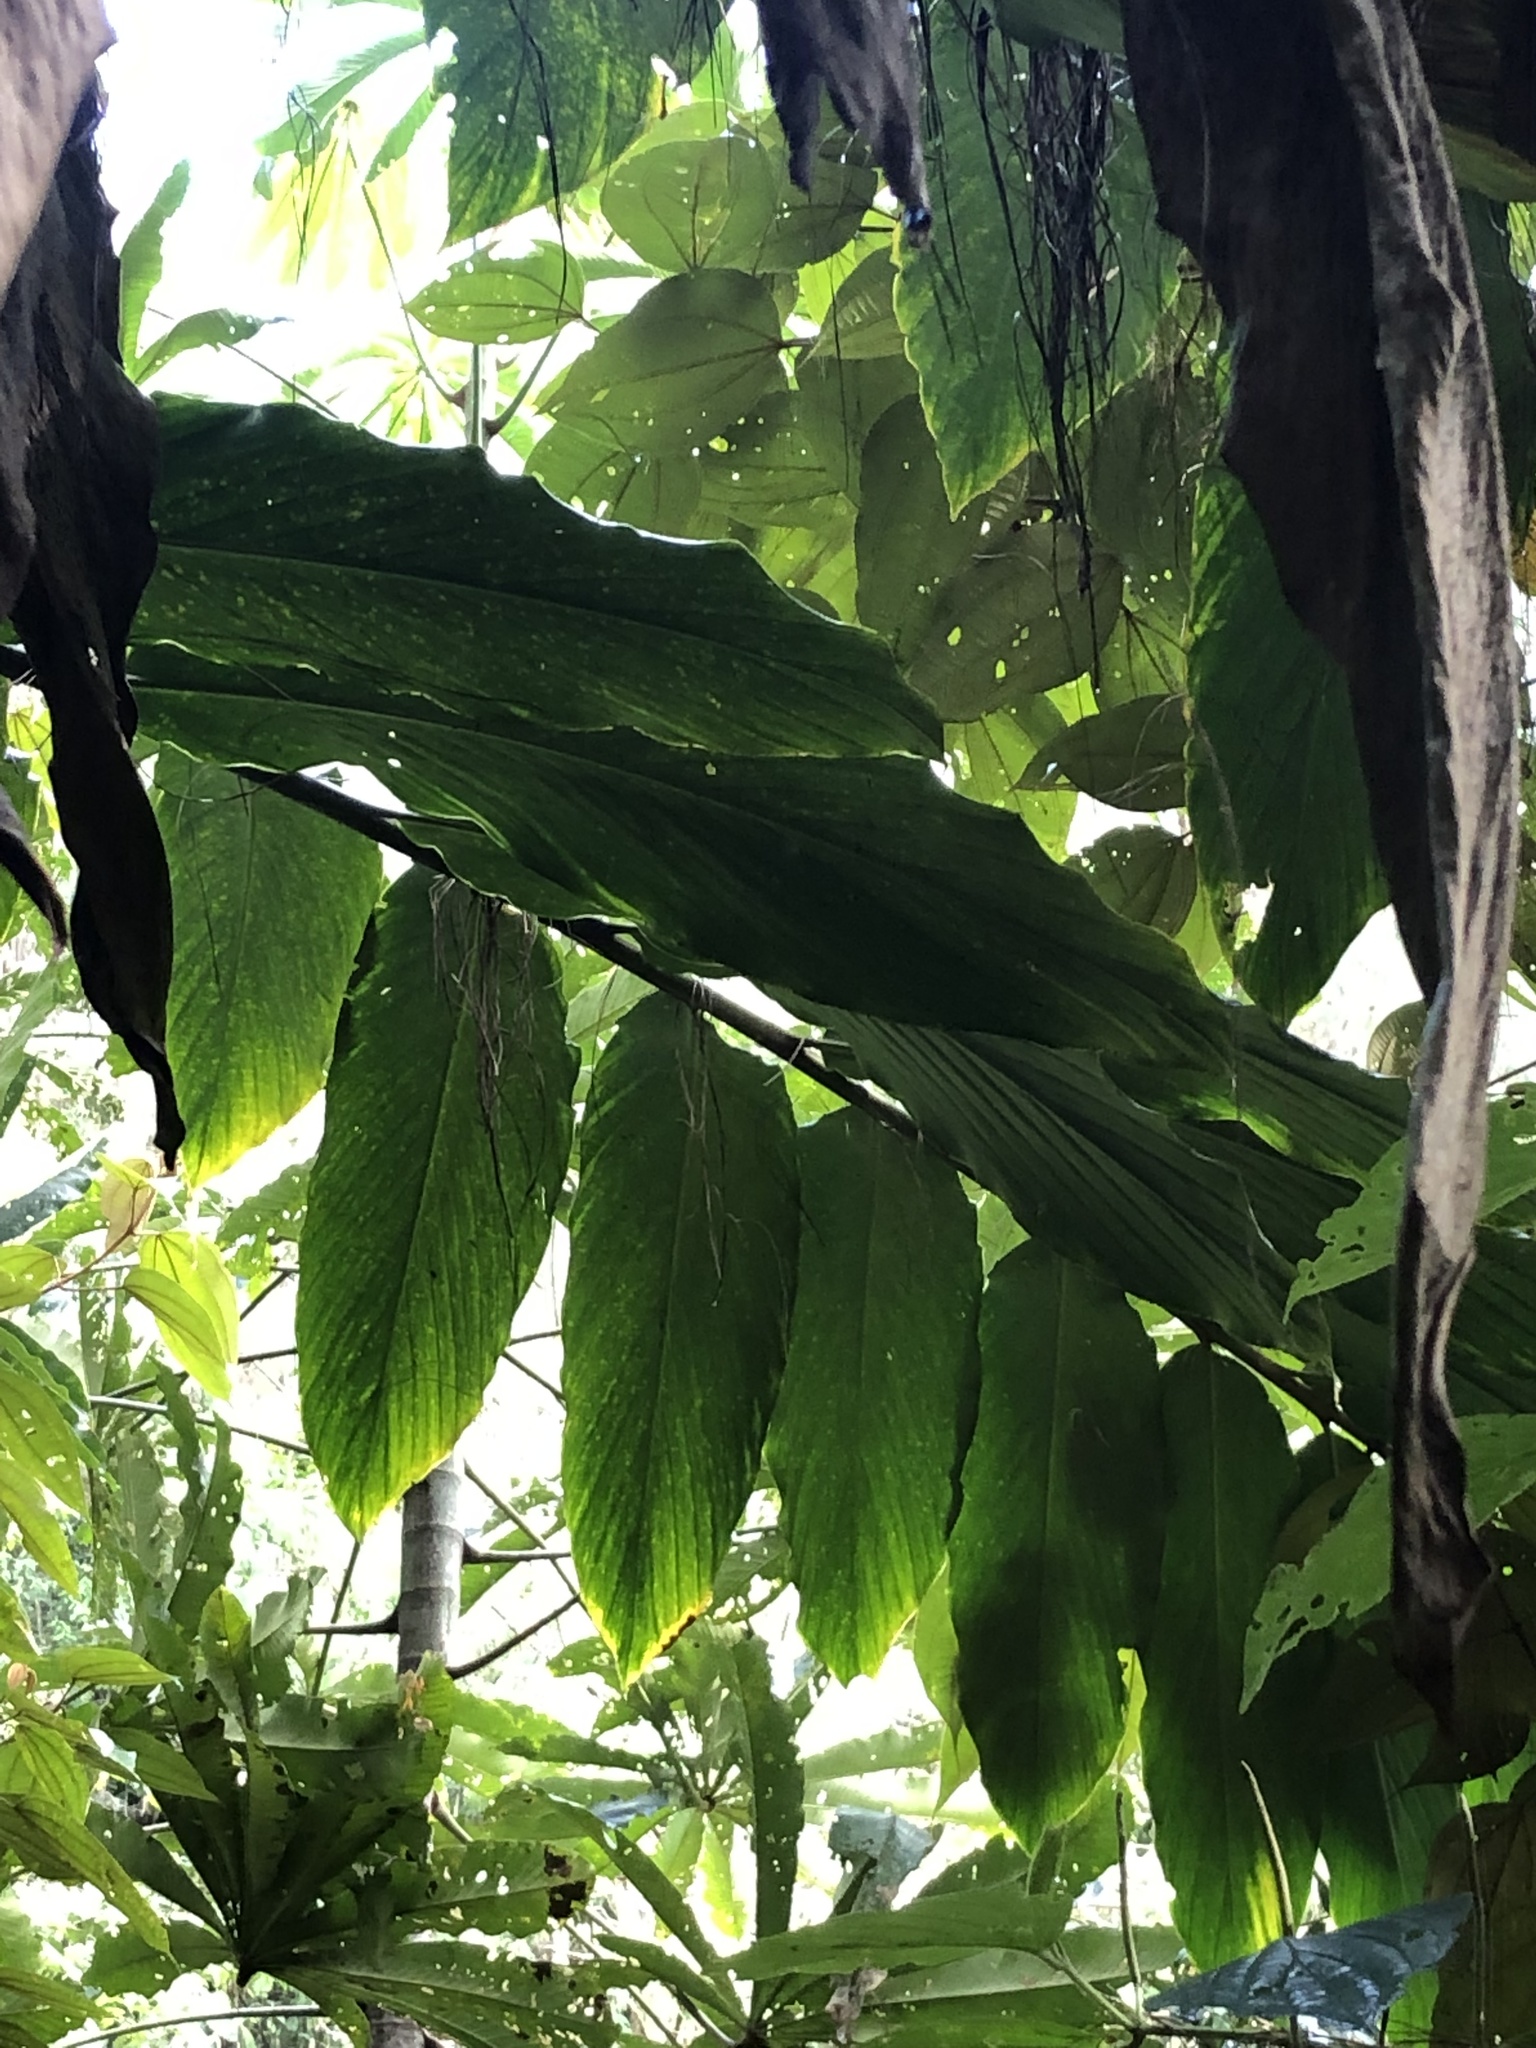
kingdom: Plantae
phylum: Tracheophyta
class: Liliopsida
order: Zingiberales
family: Zingiberaceae
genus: Renealmia
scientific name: Renealmia ligulata
